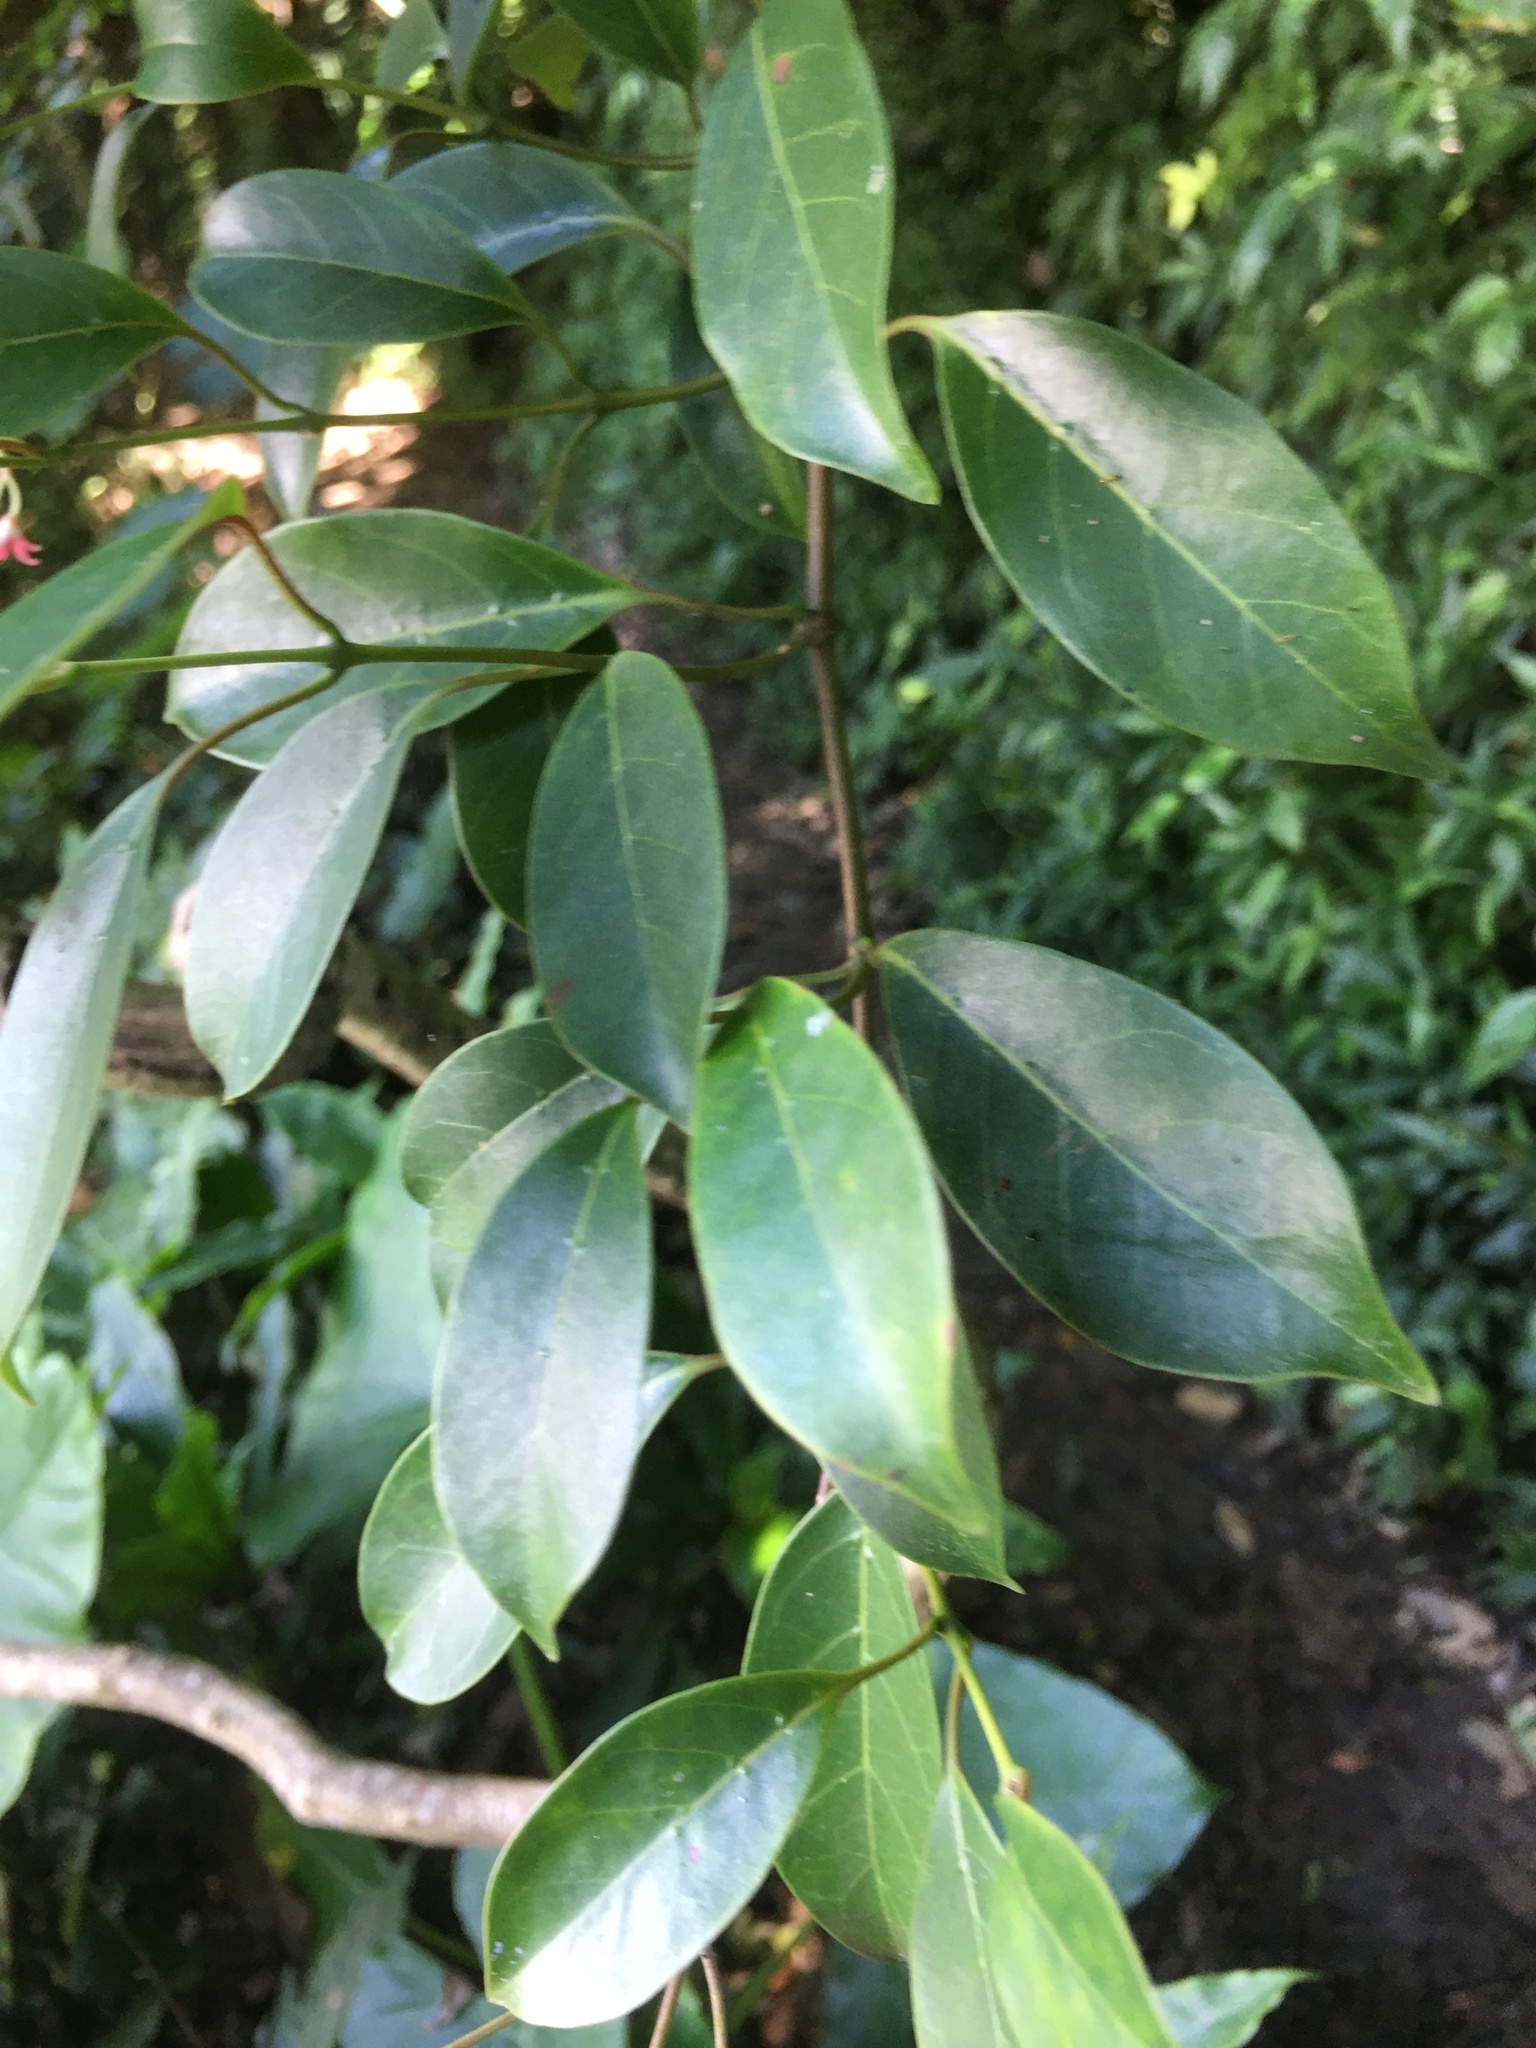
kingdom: Plantae
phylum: Tracheophyta
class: Magnoliopsida
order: Gentianales
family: Apocynaceae
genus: Urceola
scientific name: Urceola rosea
